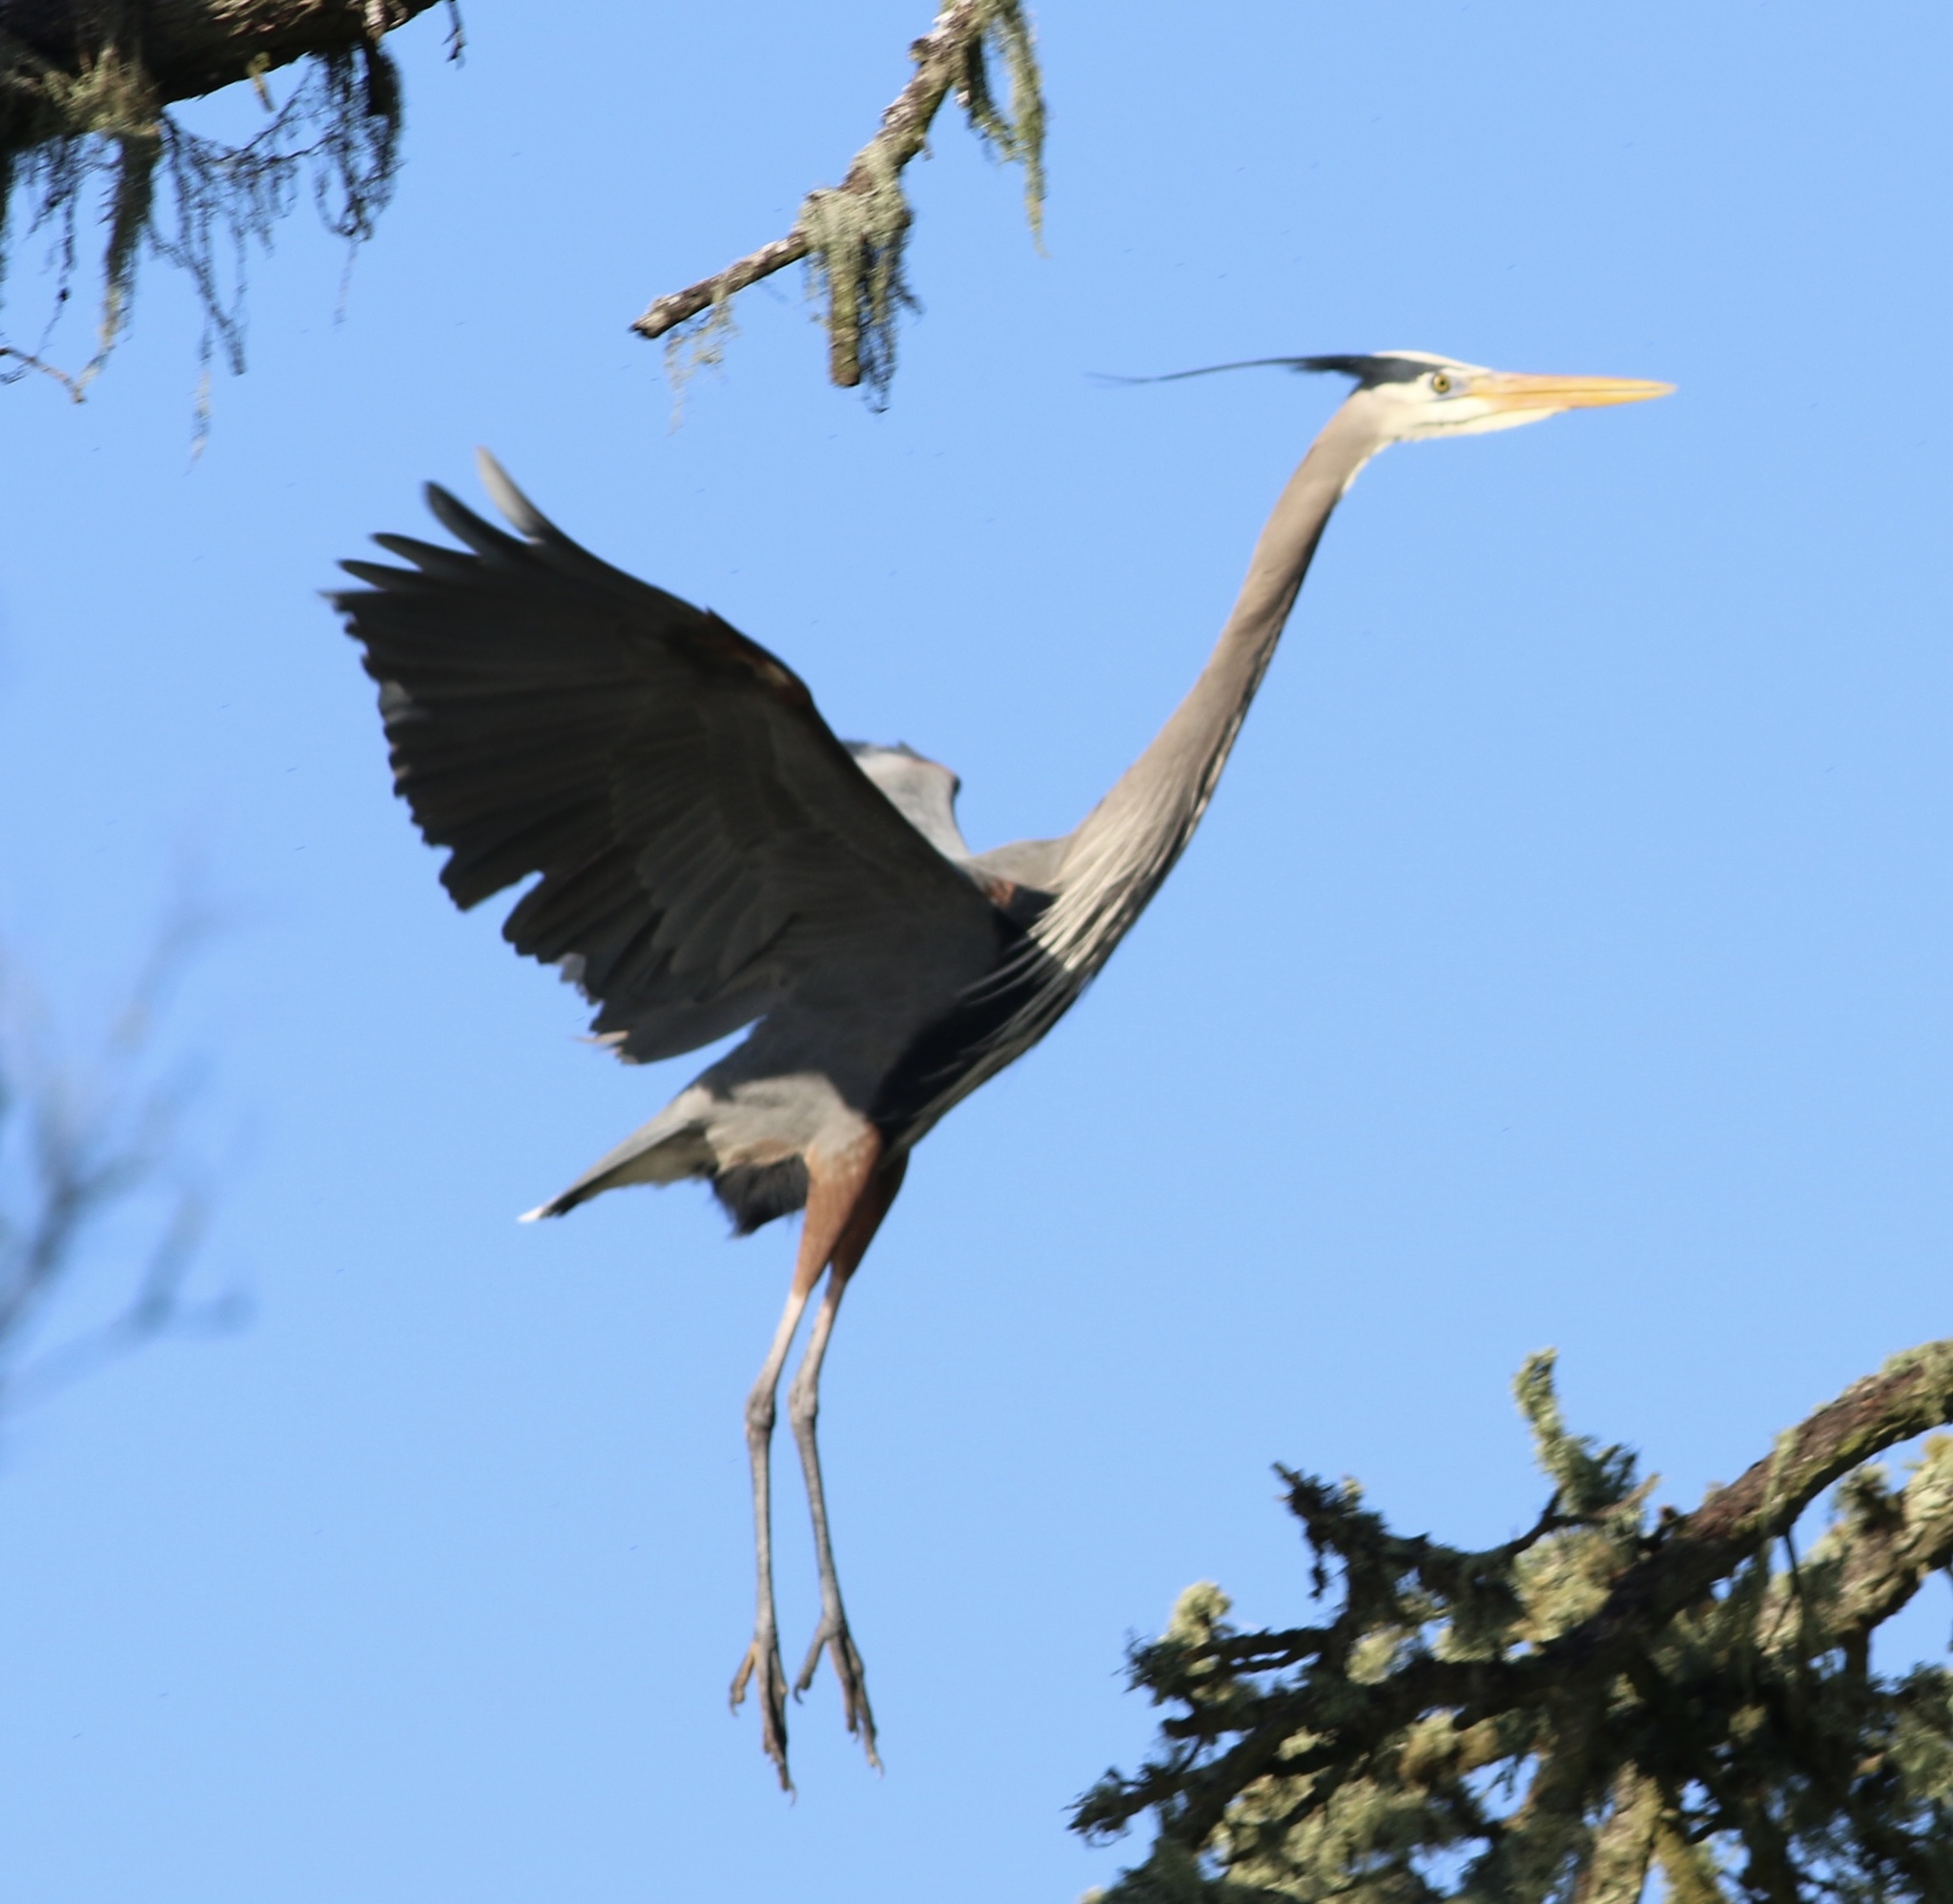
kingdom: Animalia
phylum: Chordata
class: Aves
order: Pelecaniformes
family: Ardeidae
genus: Ardea
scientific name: Ardea herodias
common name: Great blue heron
